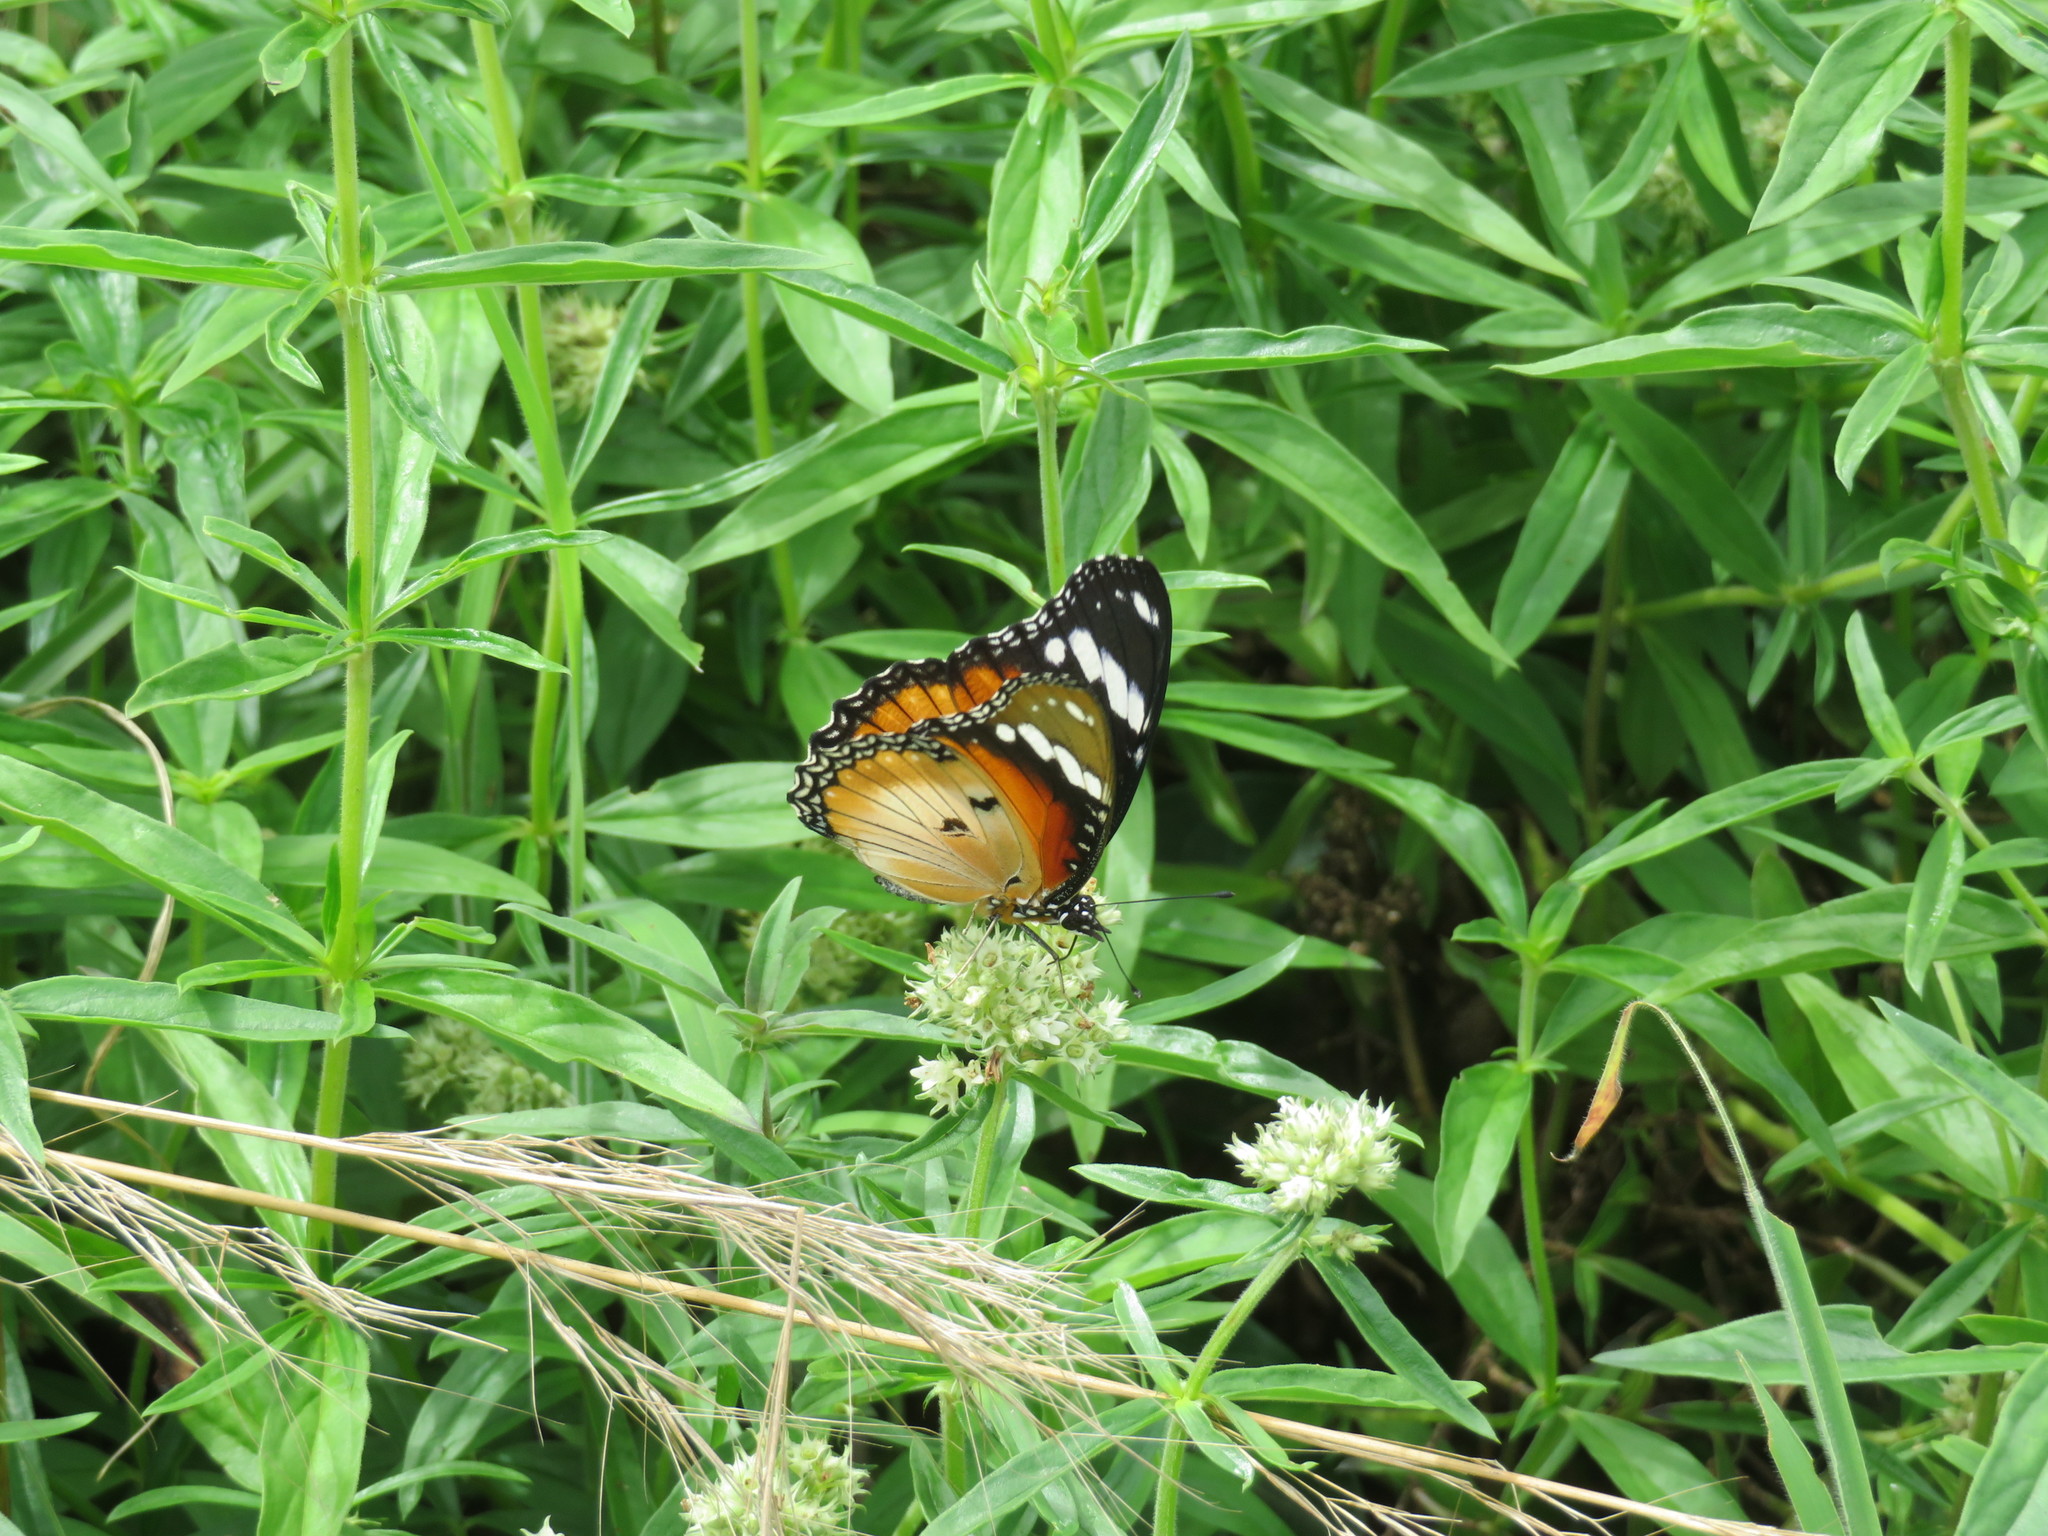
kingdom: Animalia
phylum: Arthropoda
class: Insecta
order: Lepidoptera
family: Nymphalidae
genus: Hypolimnas
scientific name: Hypolimnas misippus
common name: False plain tiger
